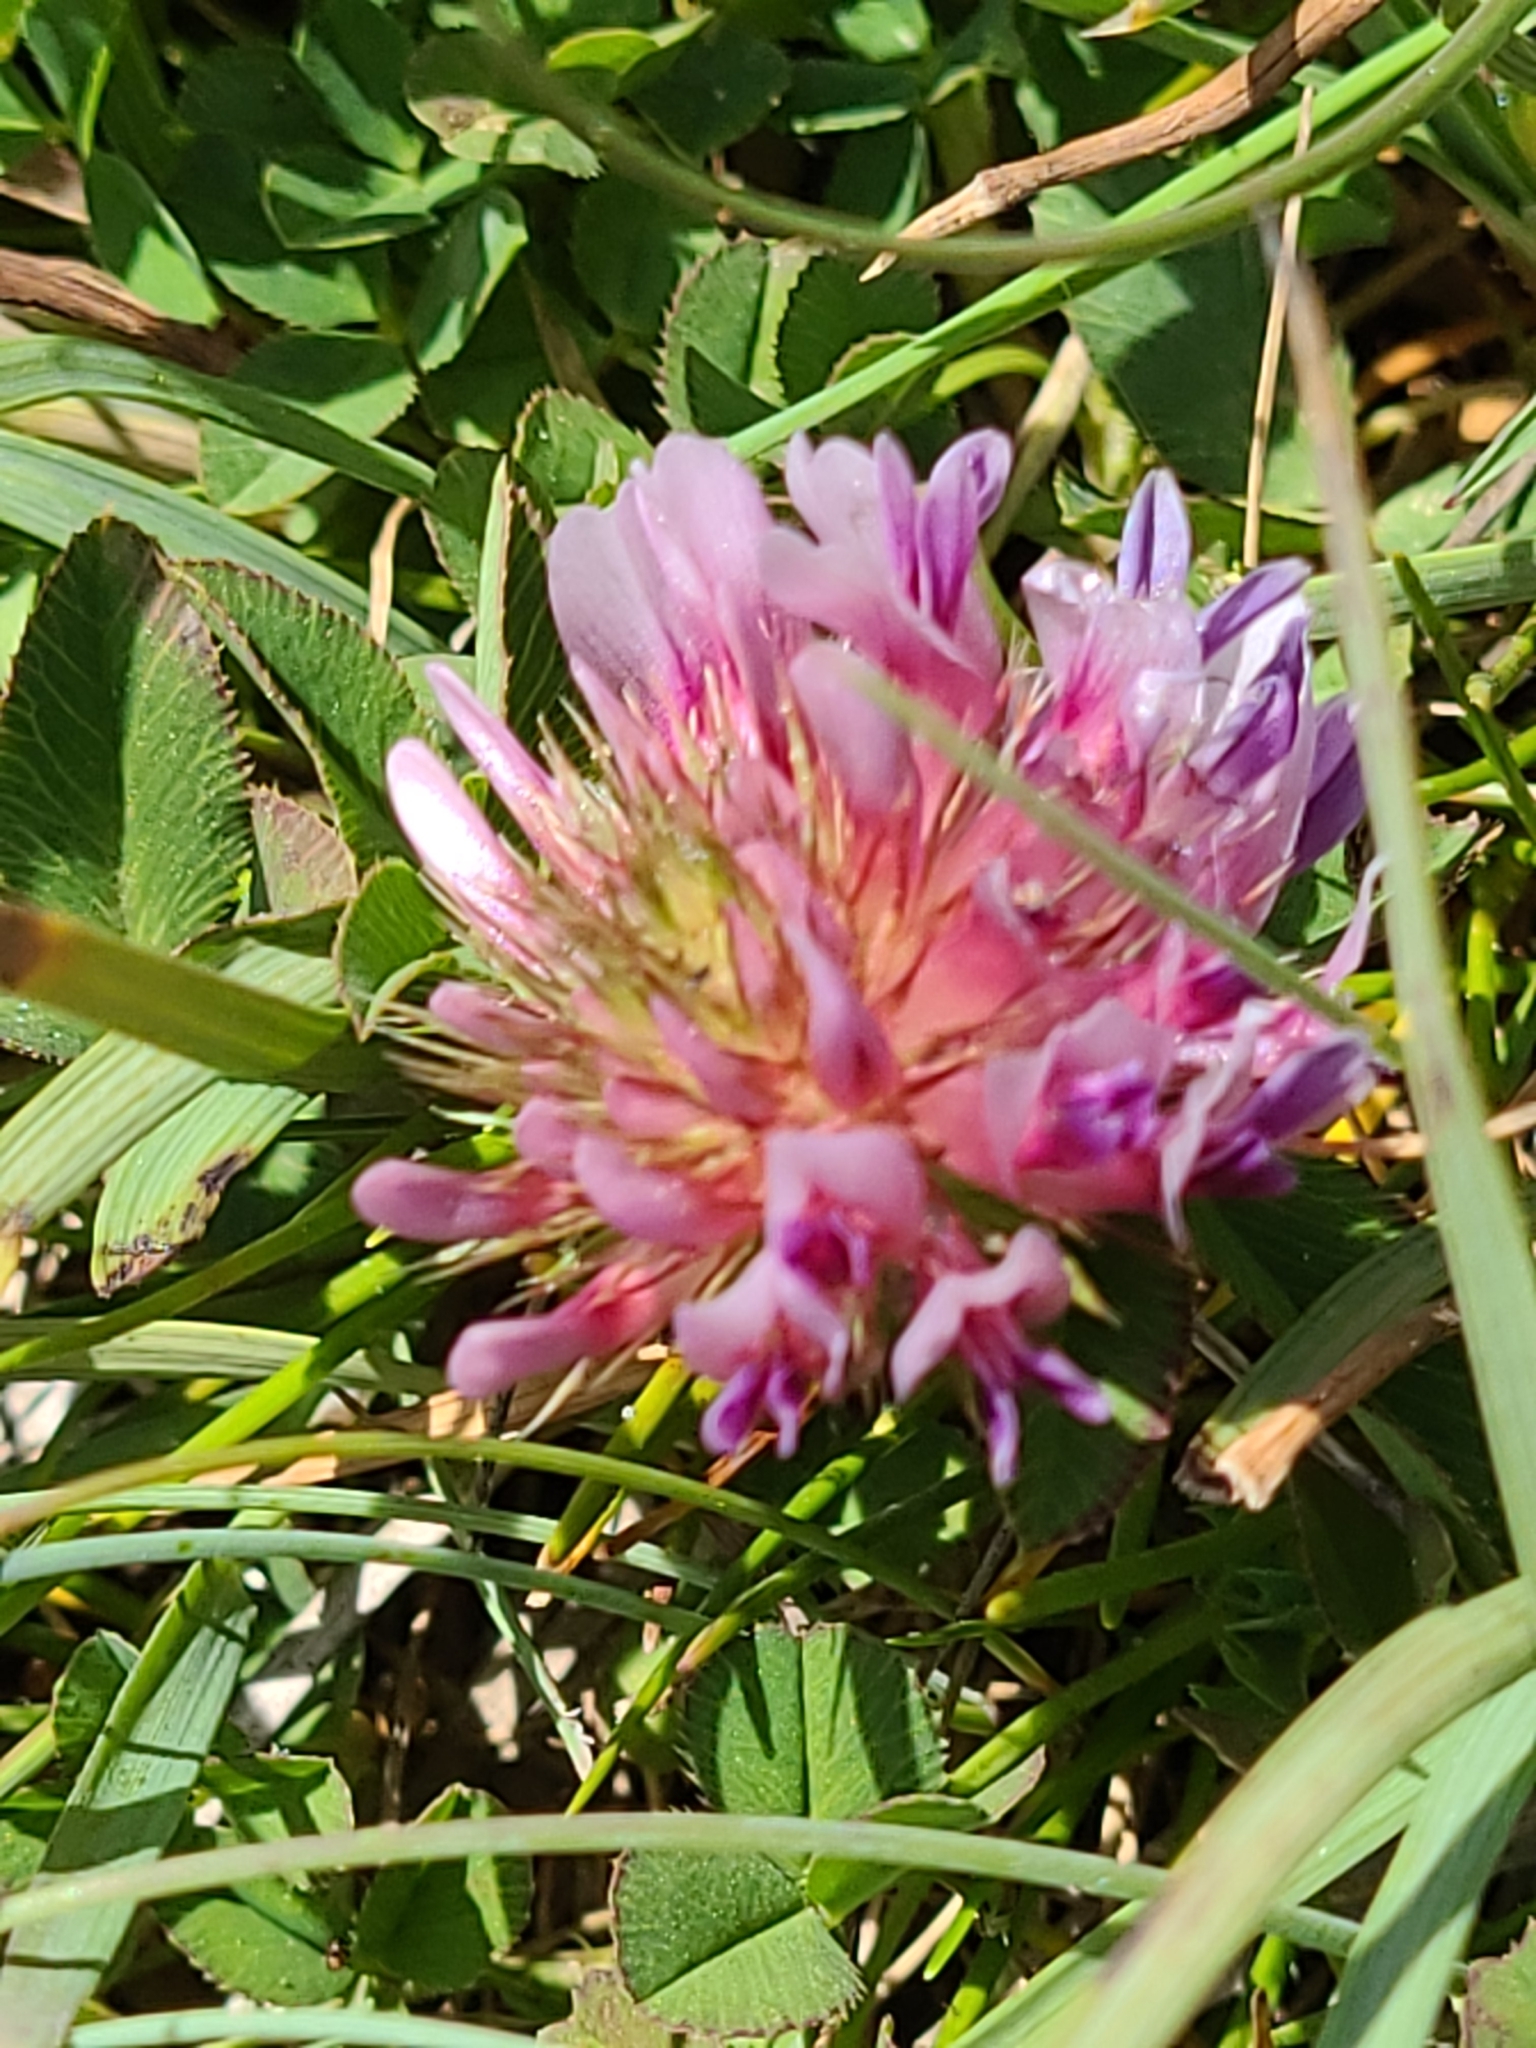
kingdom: Plantae
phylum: Tracheophyta
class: Magnoliopsida
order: Fabales
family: Fabaceae
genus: Trifolium
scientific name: Trifolium wormskioldii
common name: Springbank clover
